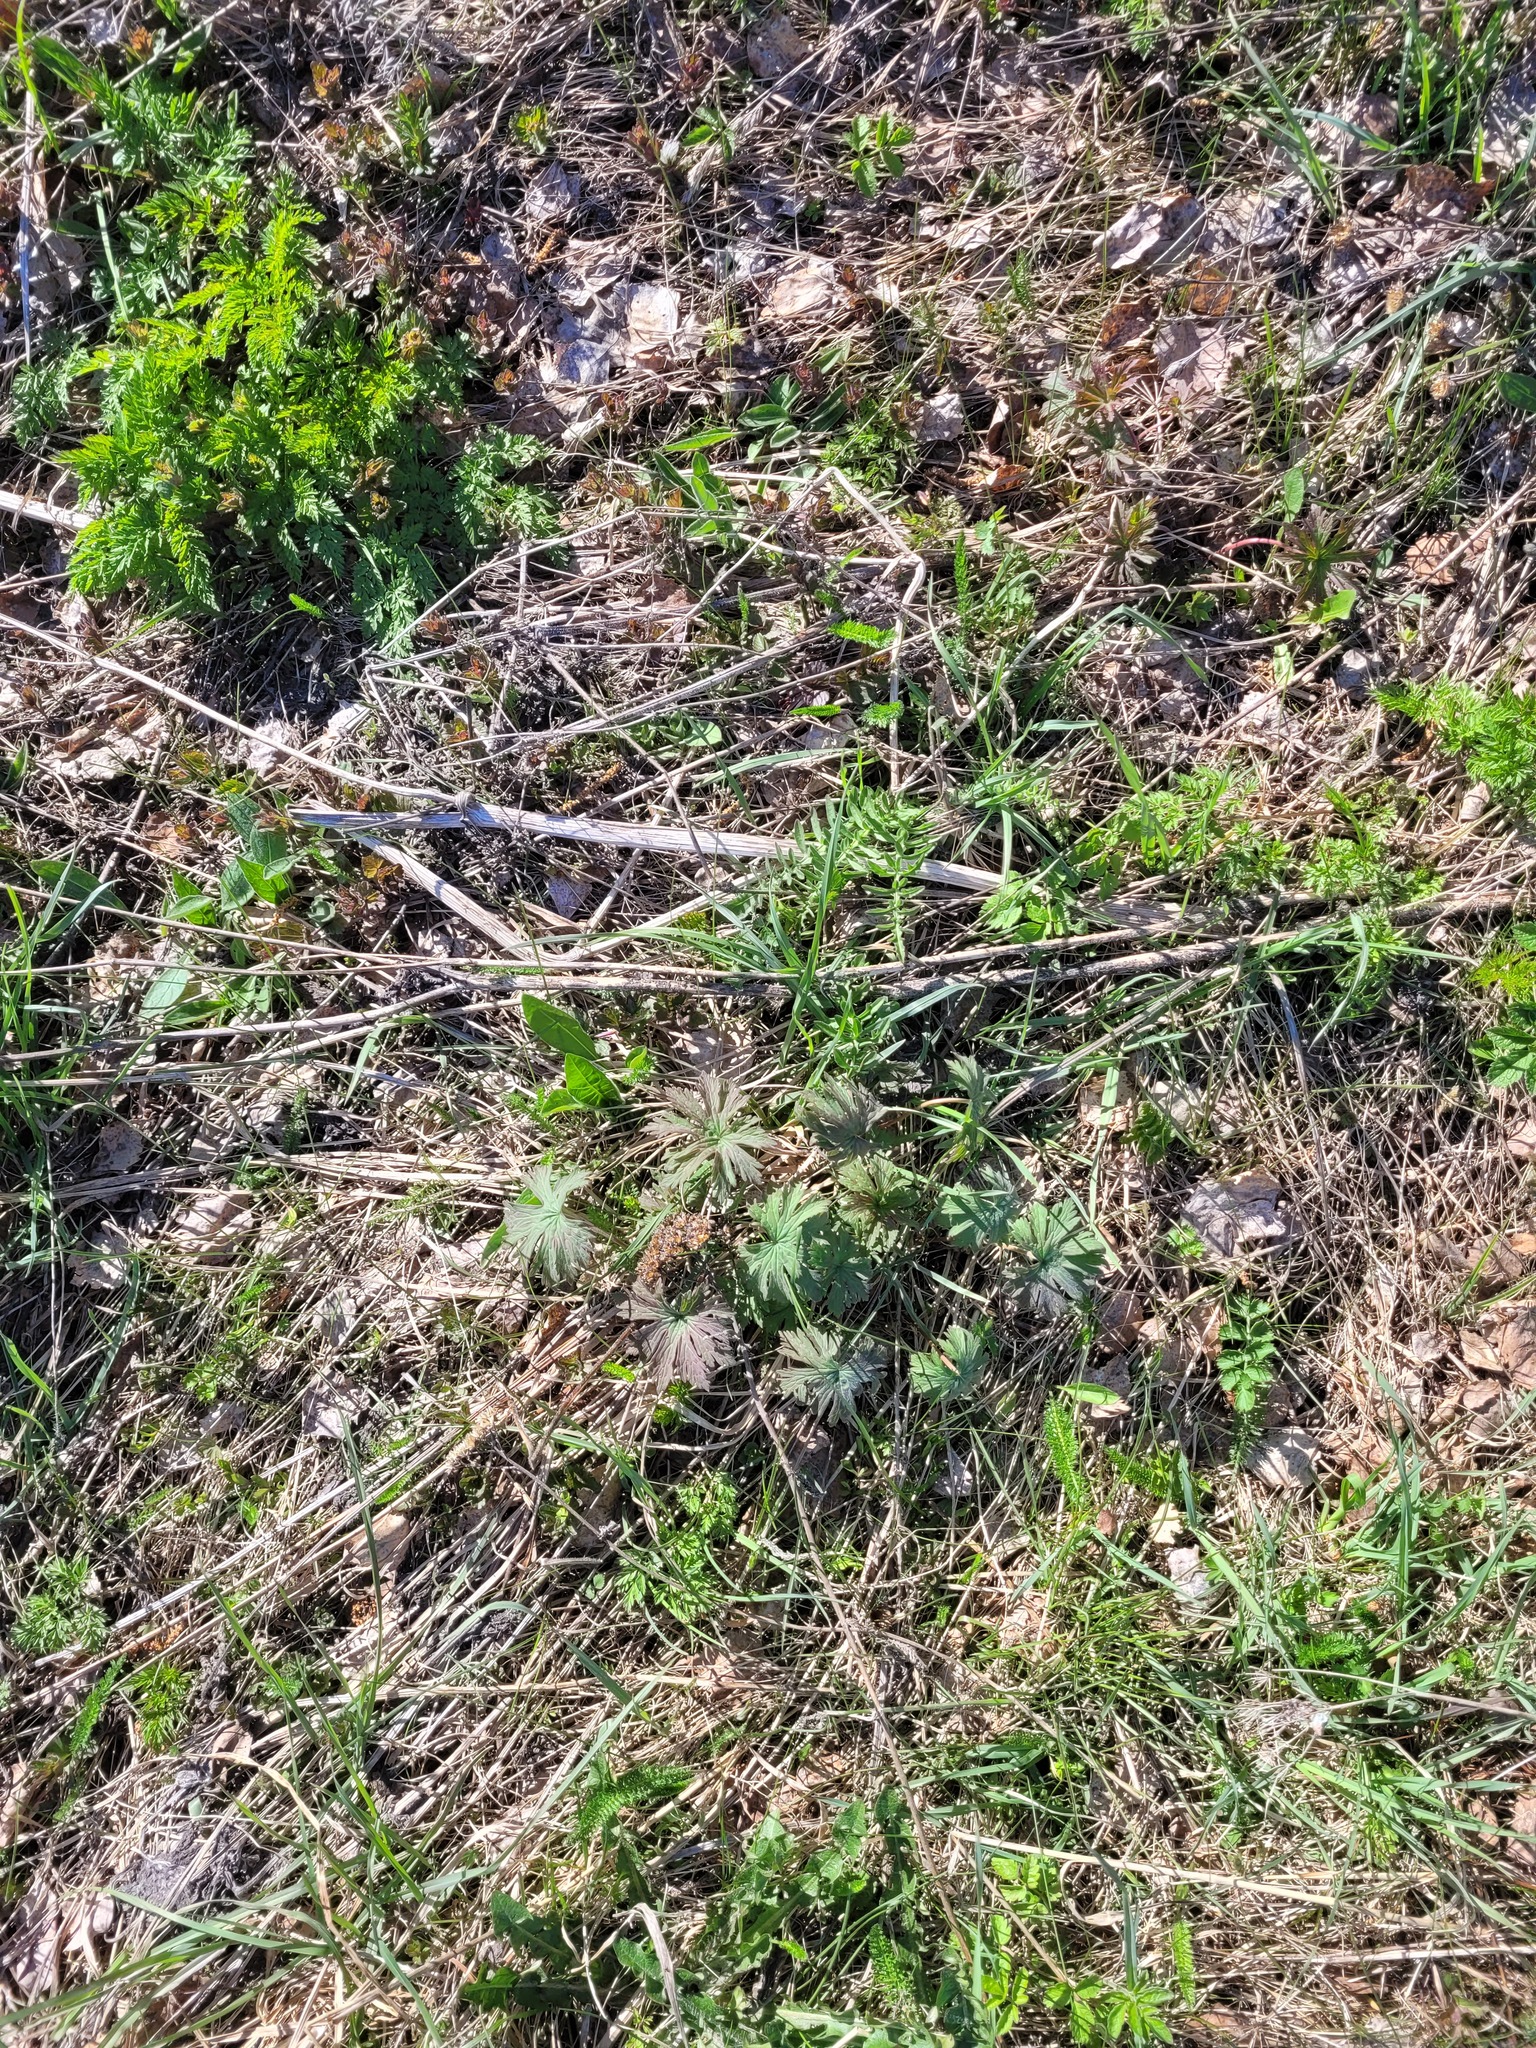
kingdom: Plantae
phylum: Tracheophyta
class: Magnoliopsida
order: Geraniales
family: Geraniaceae
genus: Geranium
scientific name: Geranium pratense
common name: Meadow crane's-bill
